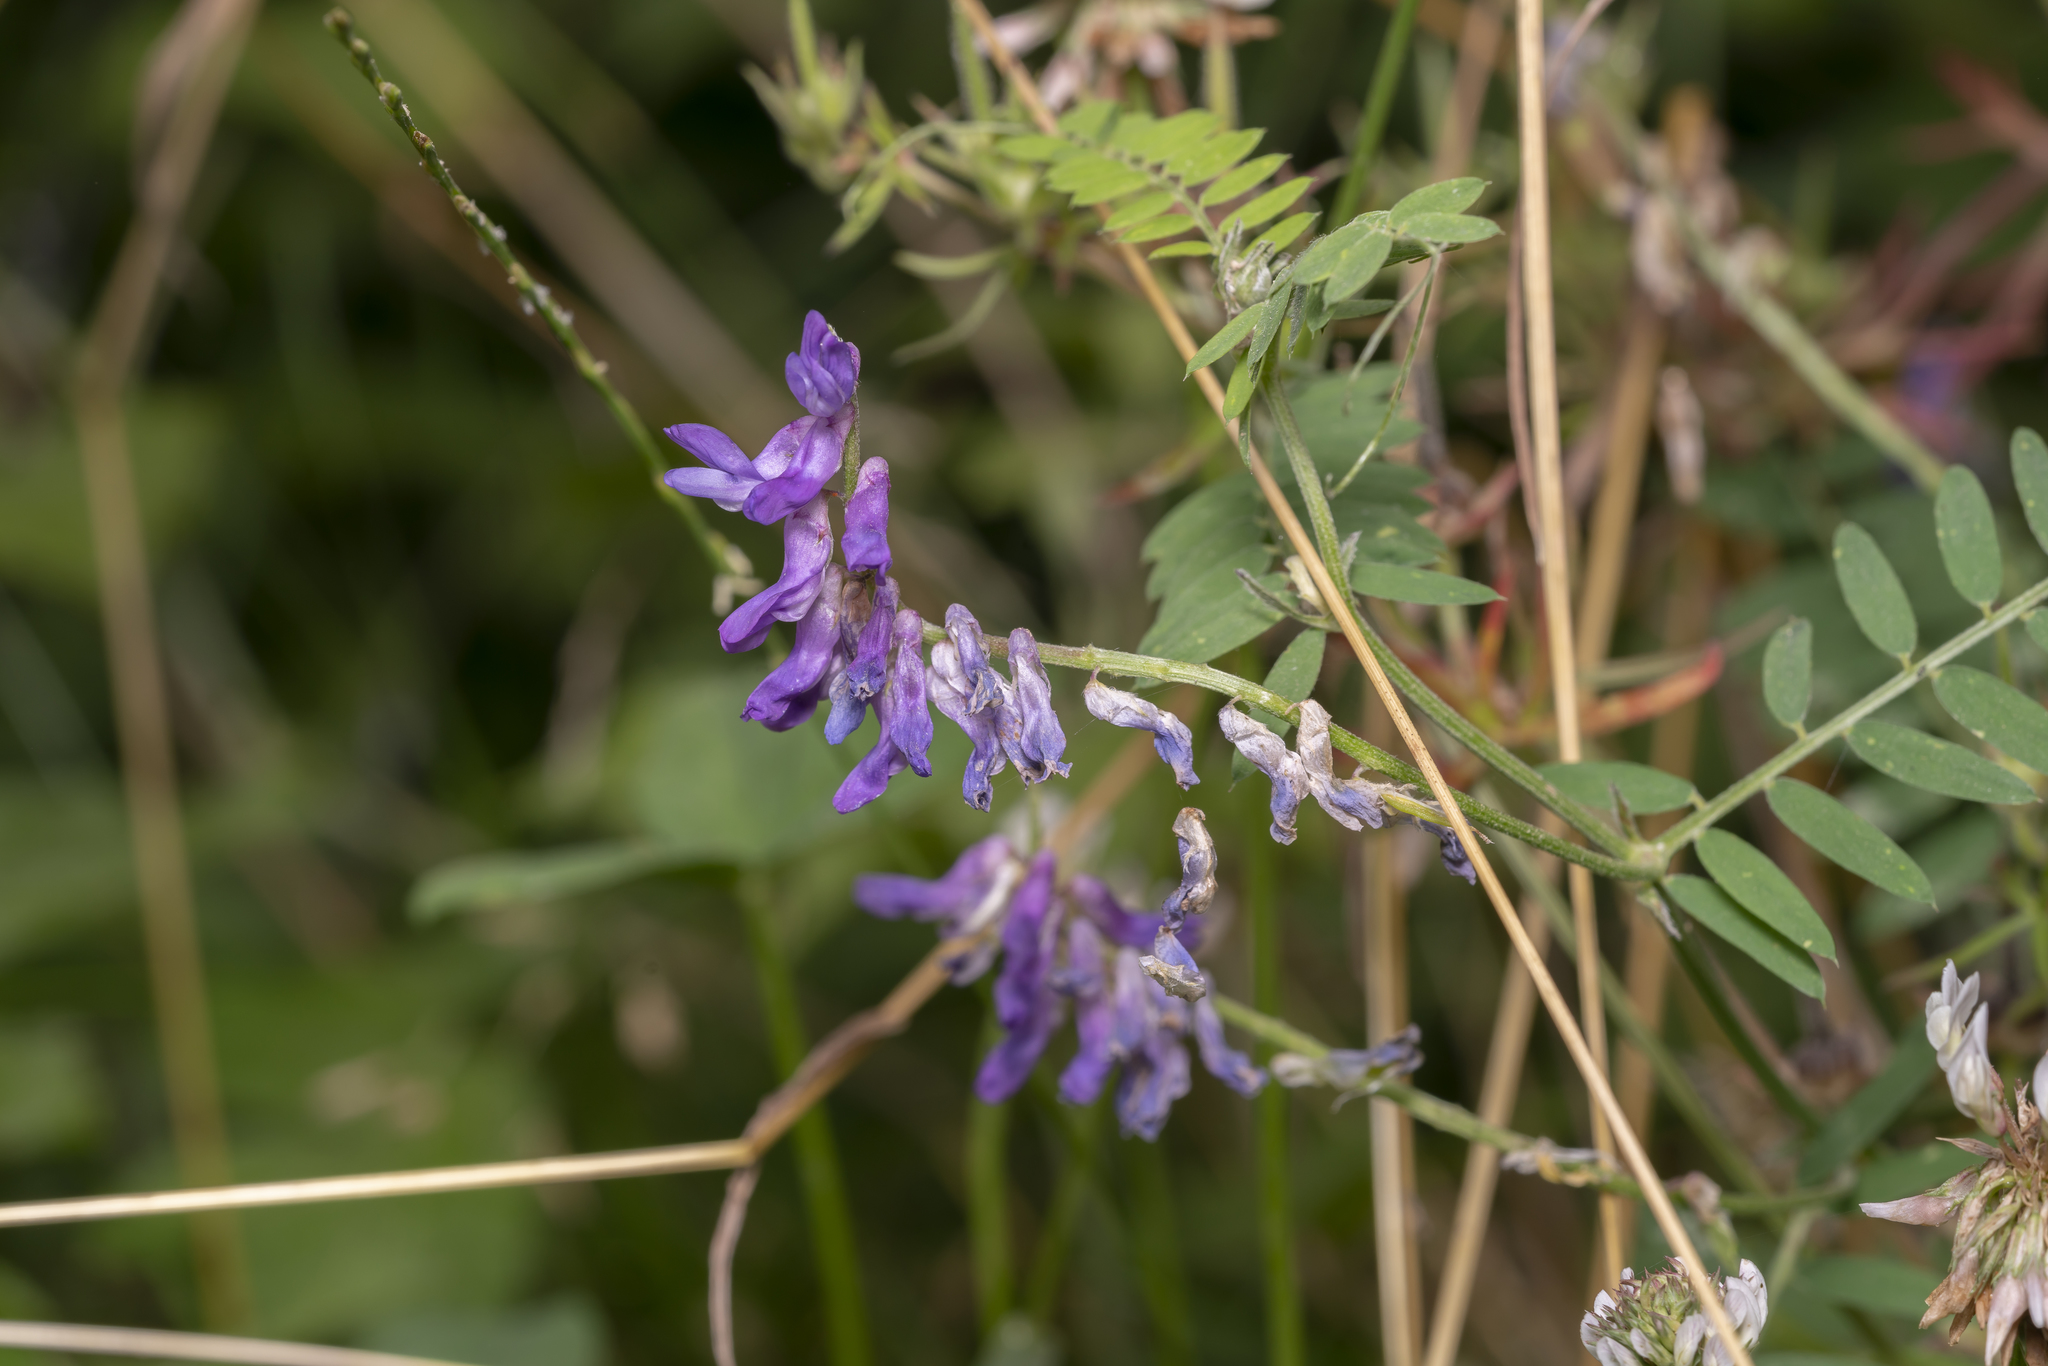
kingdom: Plantae
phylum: Tracheophyta
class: Magnoliopsida
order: Fabales
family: Fabaceae
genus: Vicia
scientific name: Vicia cracca
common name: Bird vetch
